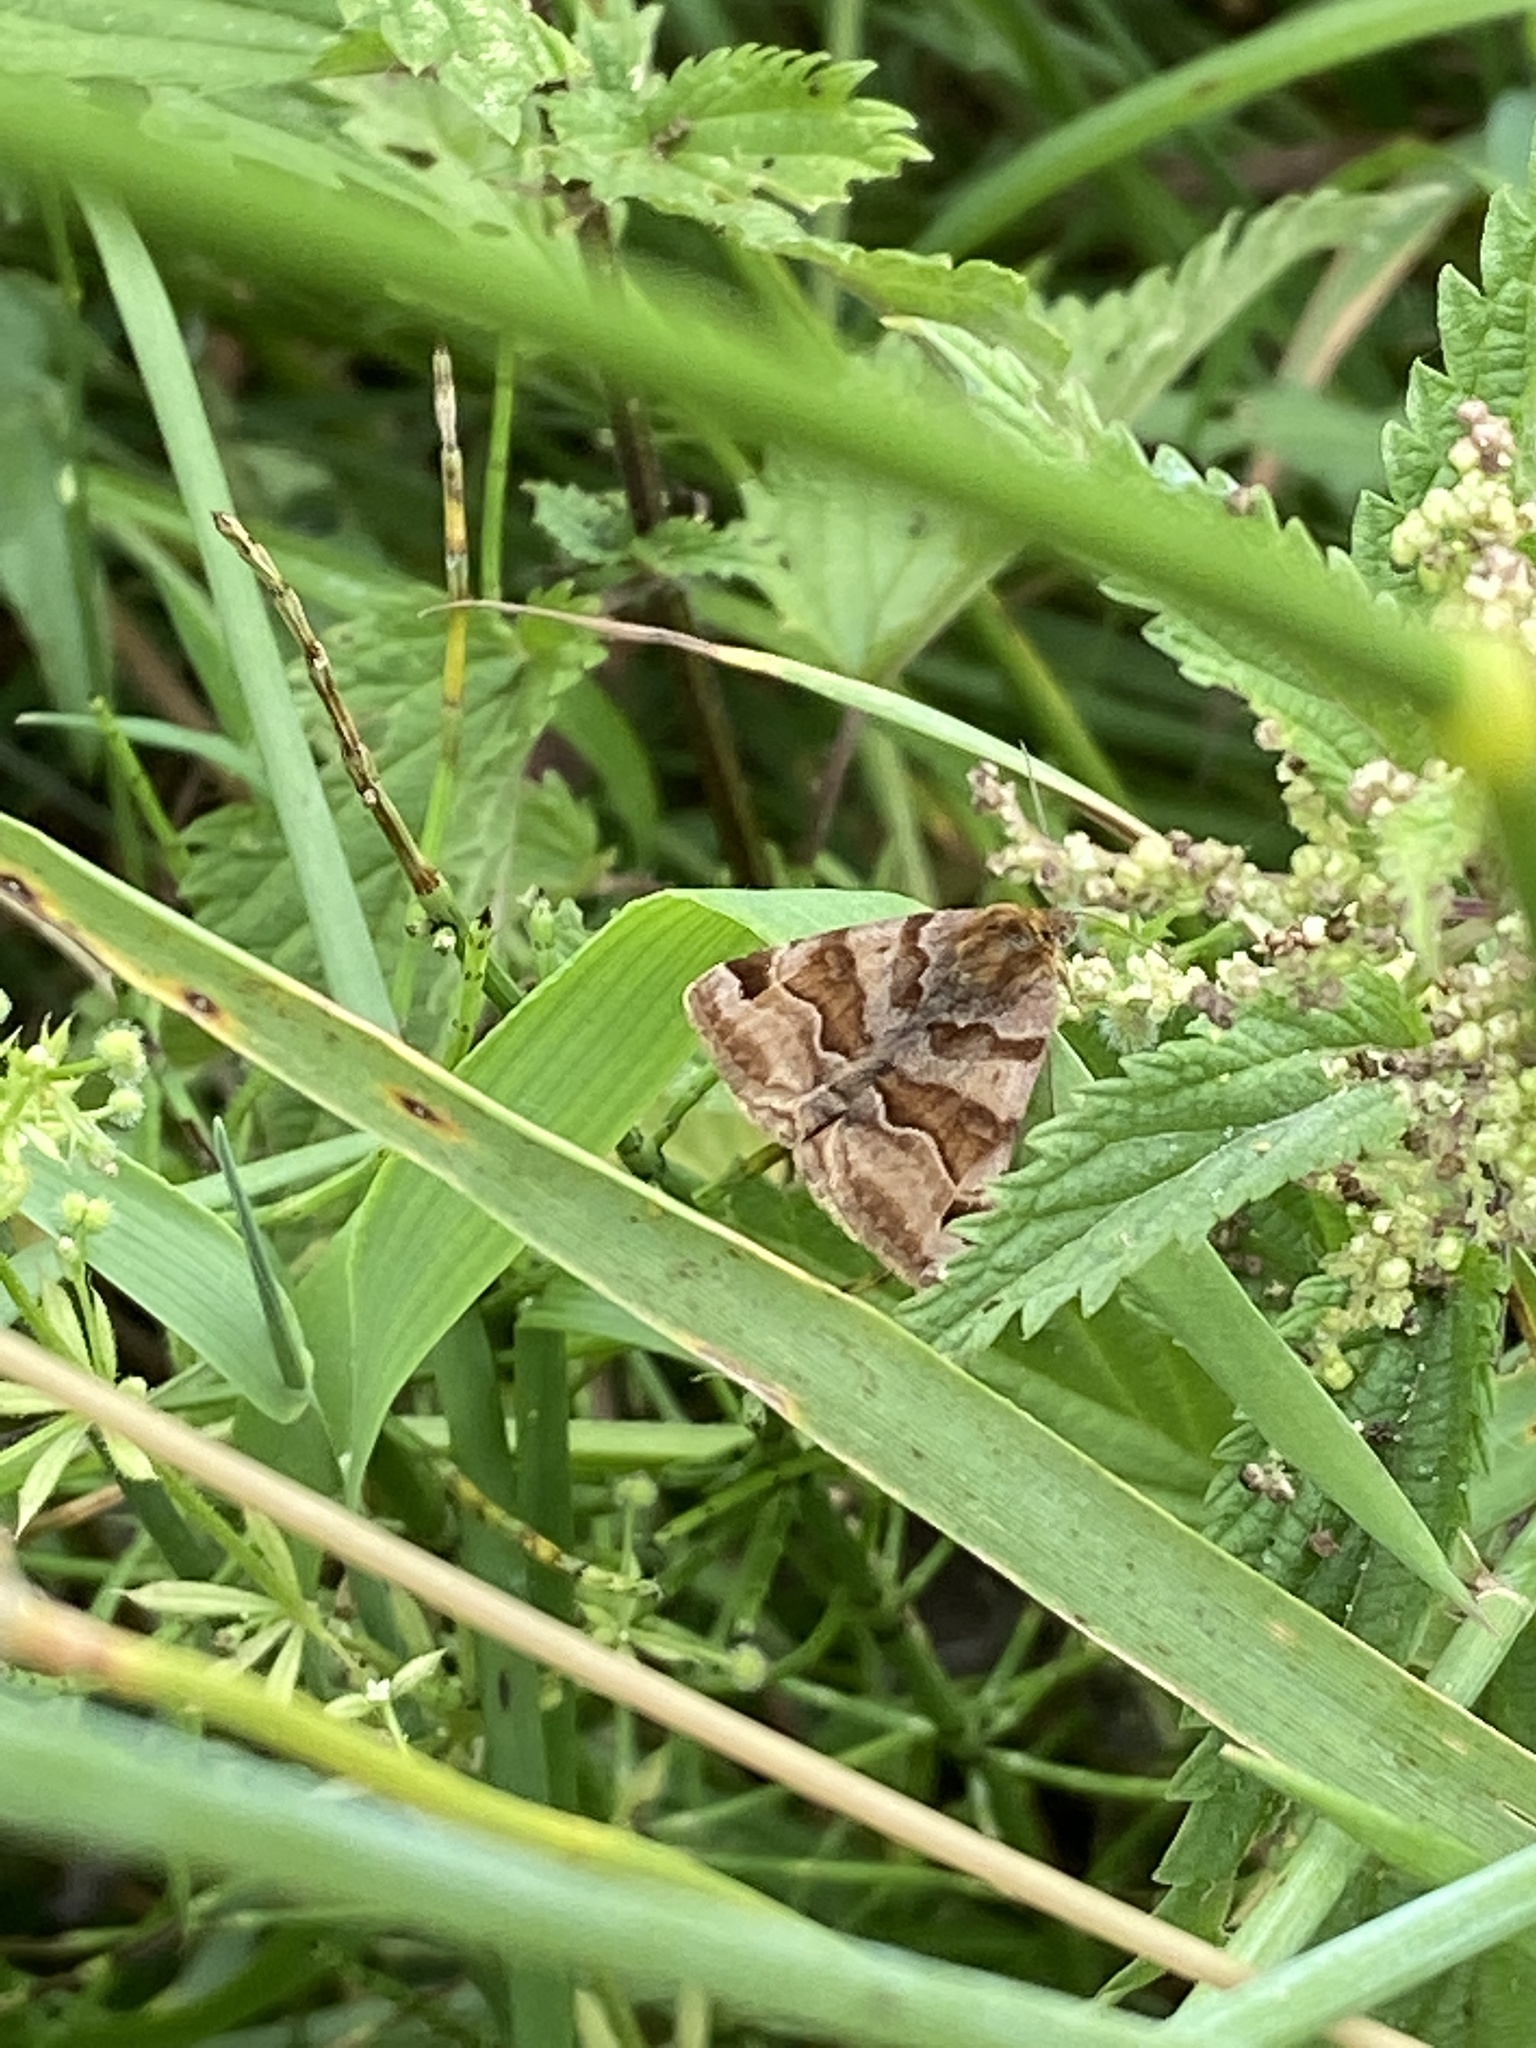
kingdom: Animalia
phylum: Arthropoda
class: Insecta
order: Lepidoptera
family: Erebidae
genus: Euclidia
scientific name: Euclidia glyphica
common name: Burnet companion
